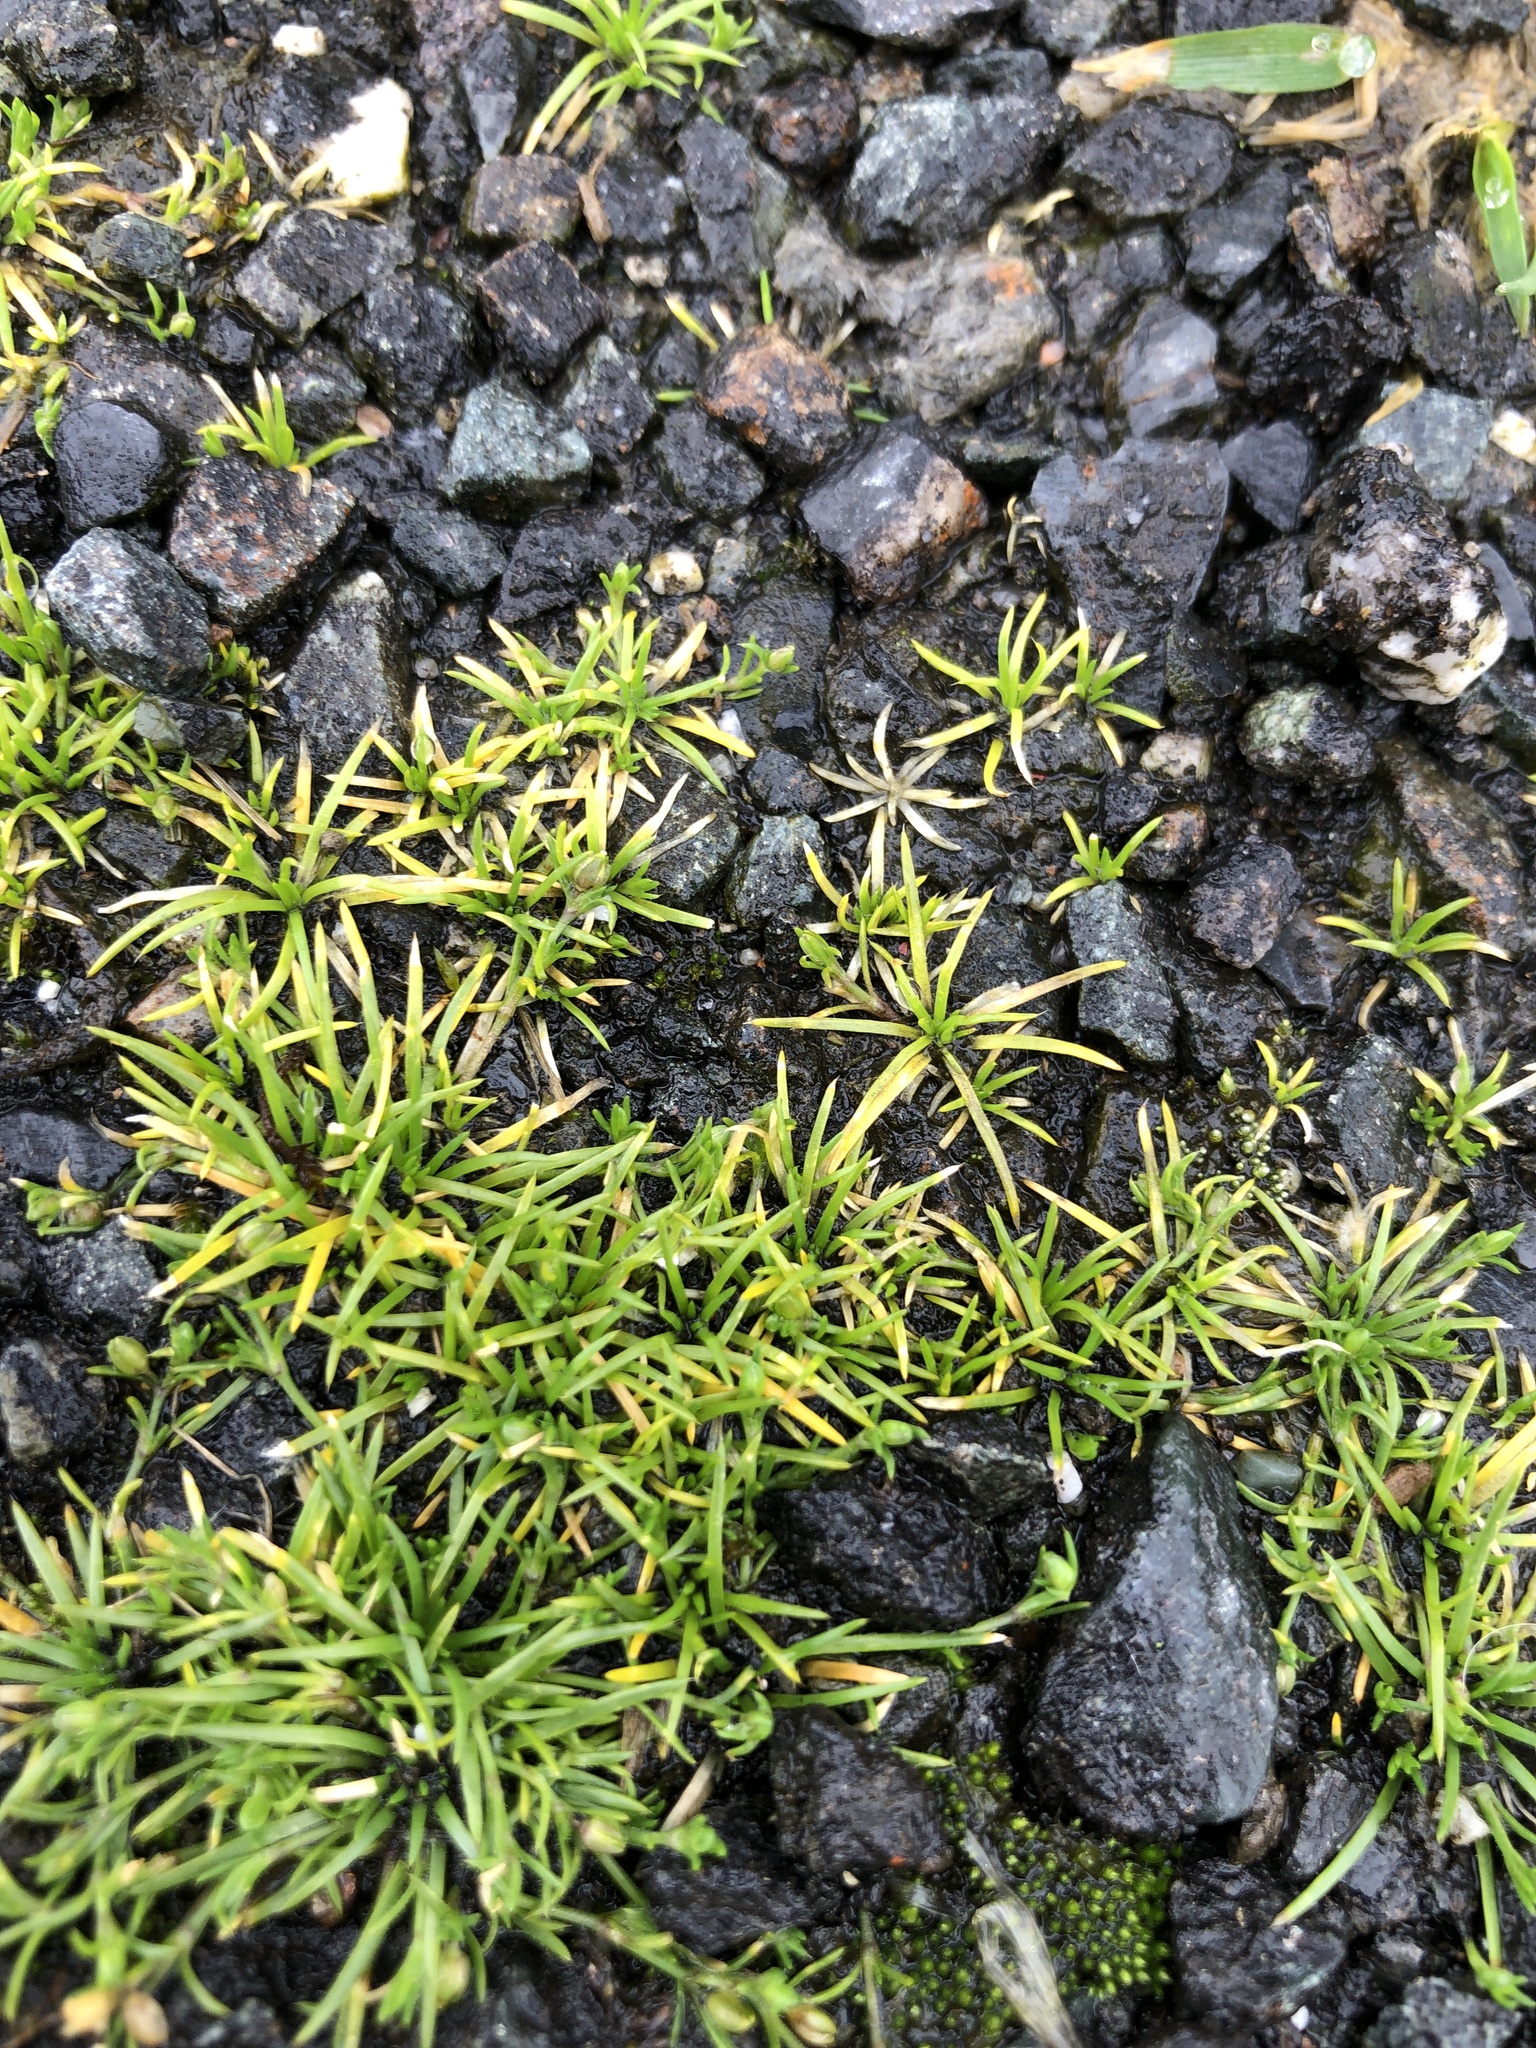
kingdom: Plantae
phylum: Tracheophyta
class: Magnoliopsida
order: Caryophyllales
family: Caryophyllaceae
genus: Sagina
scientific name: Sagina procumbens
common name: Procumbent pearlwort
